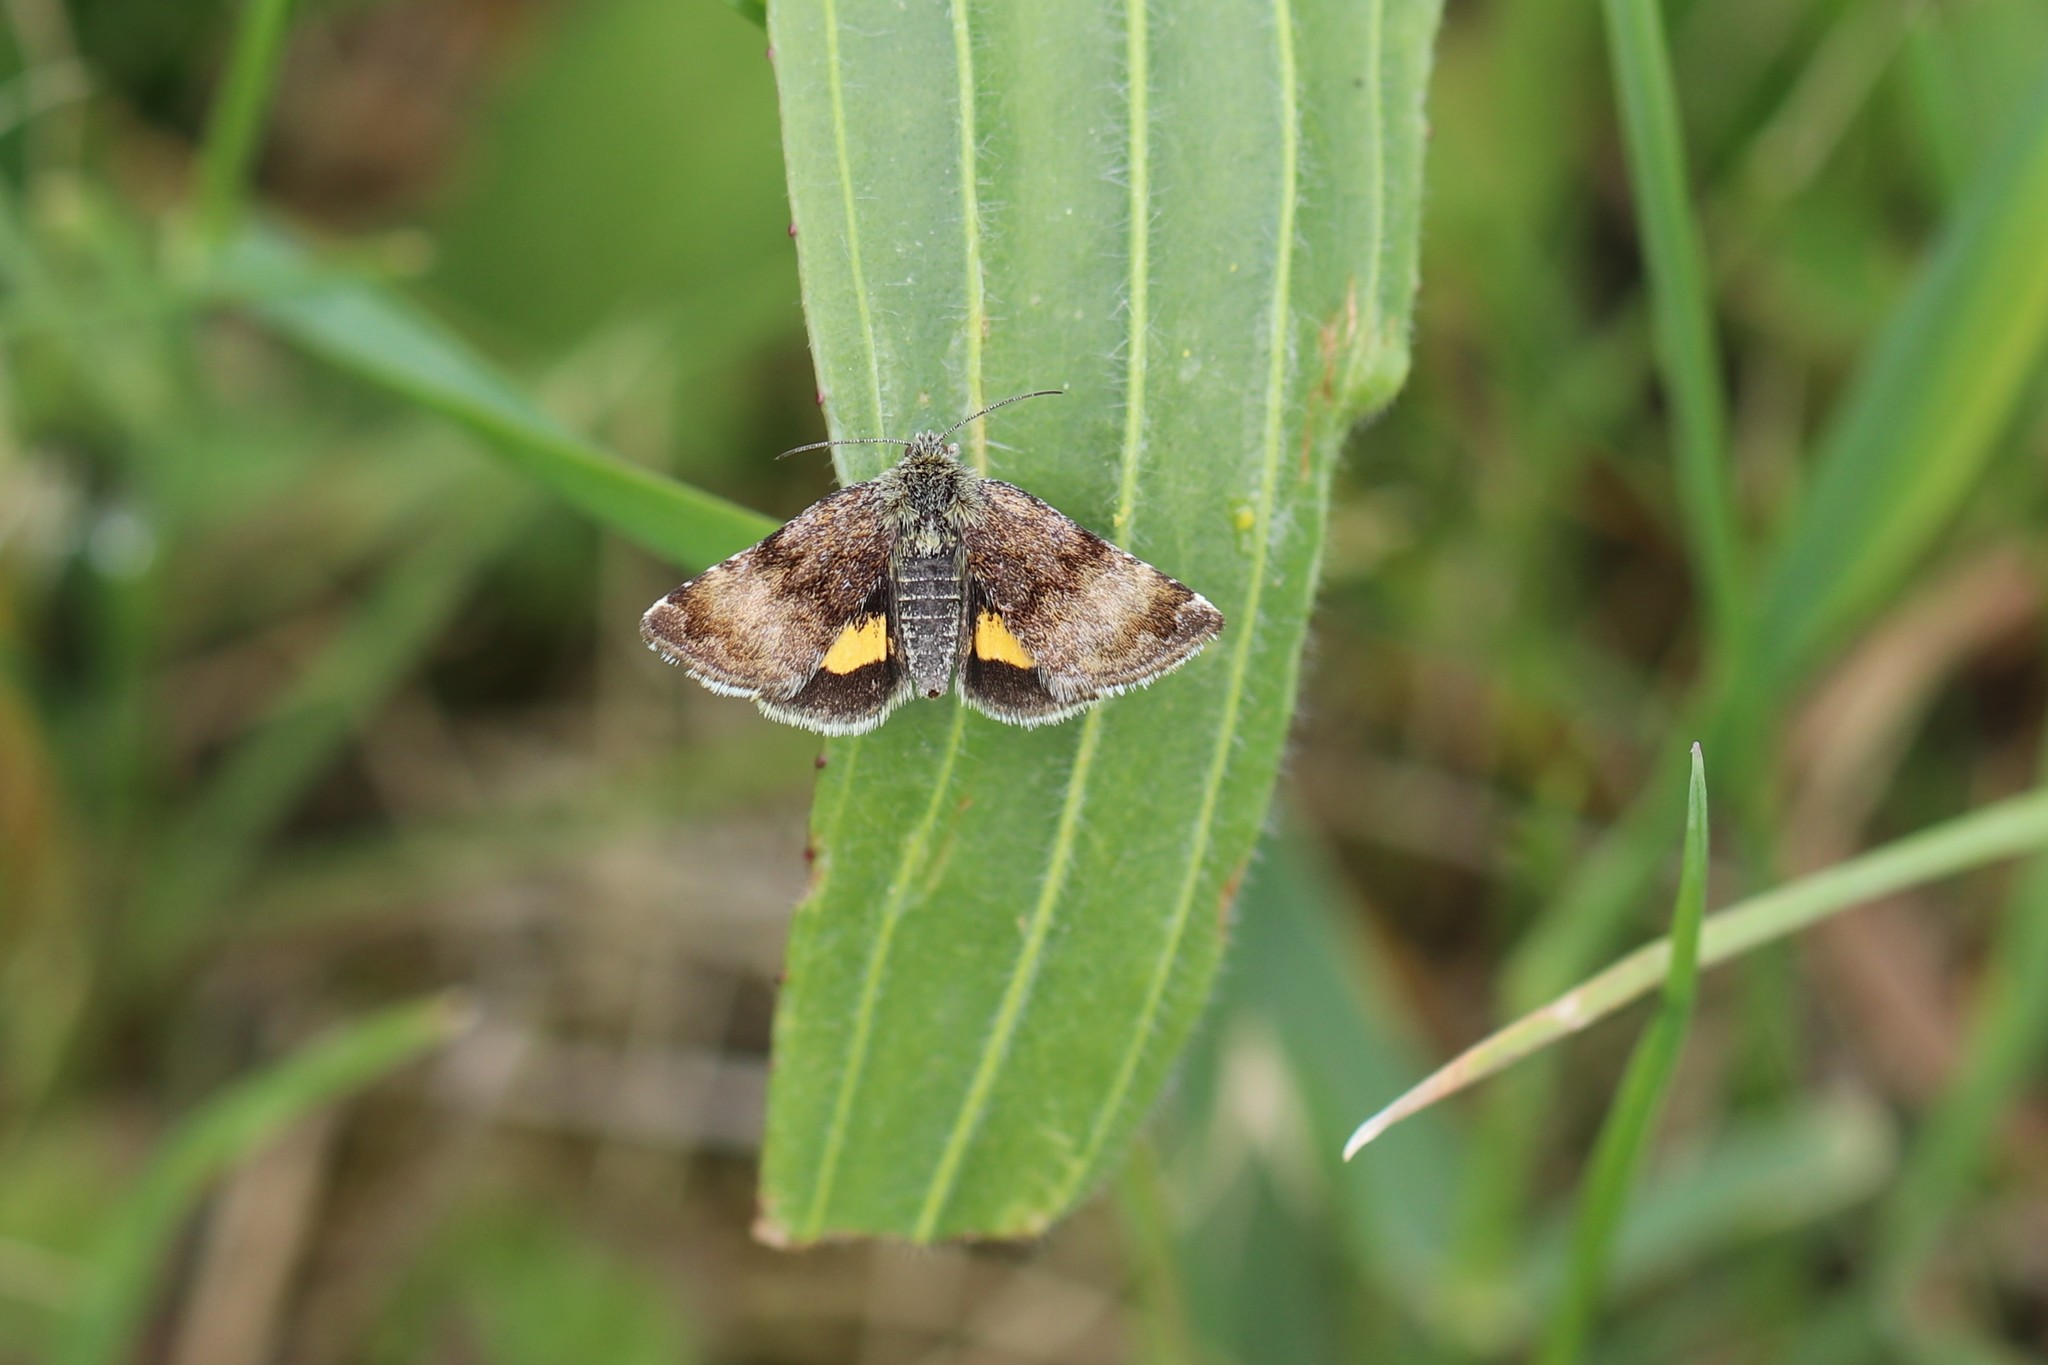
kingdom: Animalia
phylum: Arthropoda
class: Insecta
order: Lepidoptera
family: Noctuidae
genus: Panemeria
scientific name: Panemeria tenebrata
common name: Small yellow underwing
